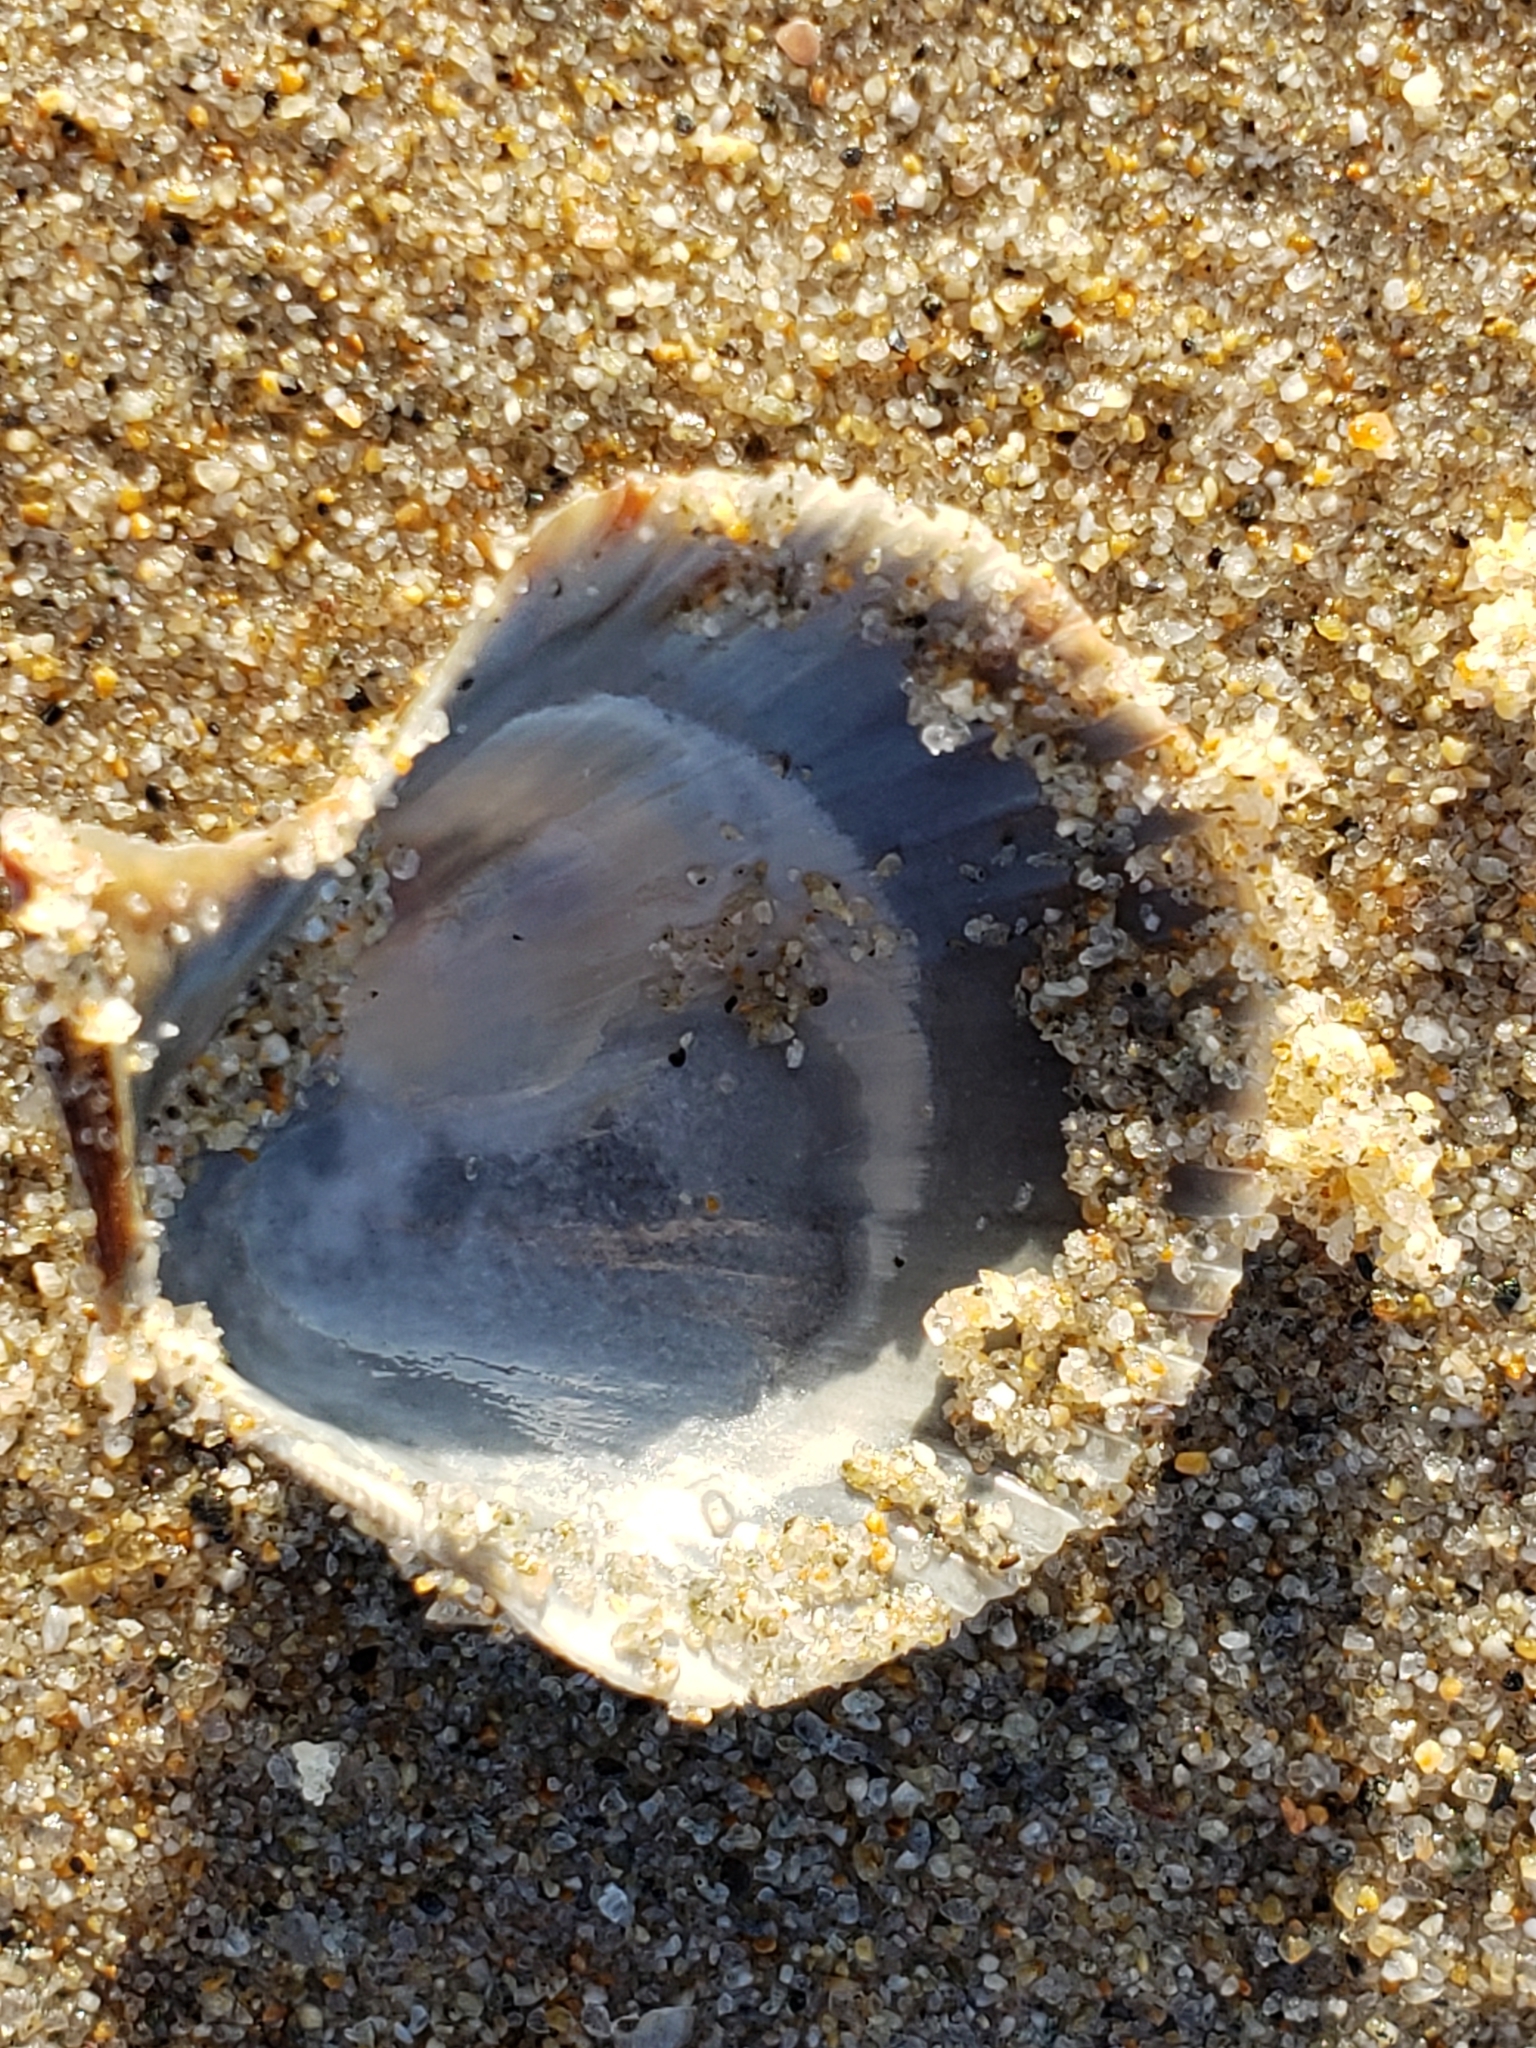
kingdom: Animalia
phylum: Mollusca
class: Bivalvia
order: Pectinida
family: Pectinidae
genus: Argopecten
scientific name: Argopecten ventricosus
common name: Catarina scallop
